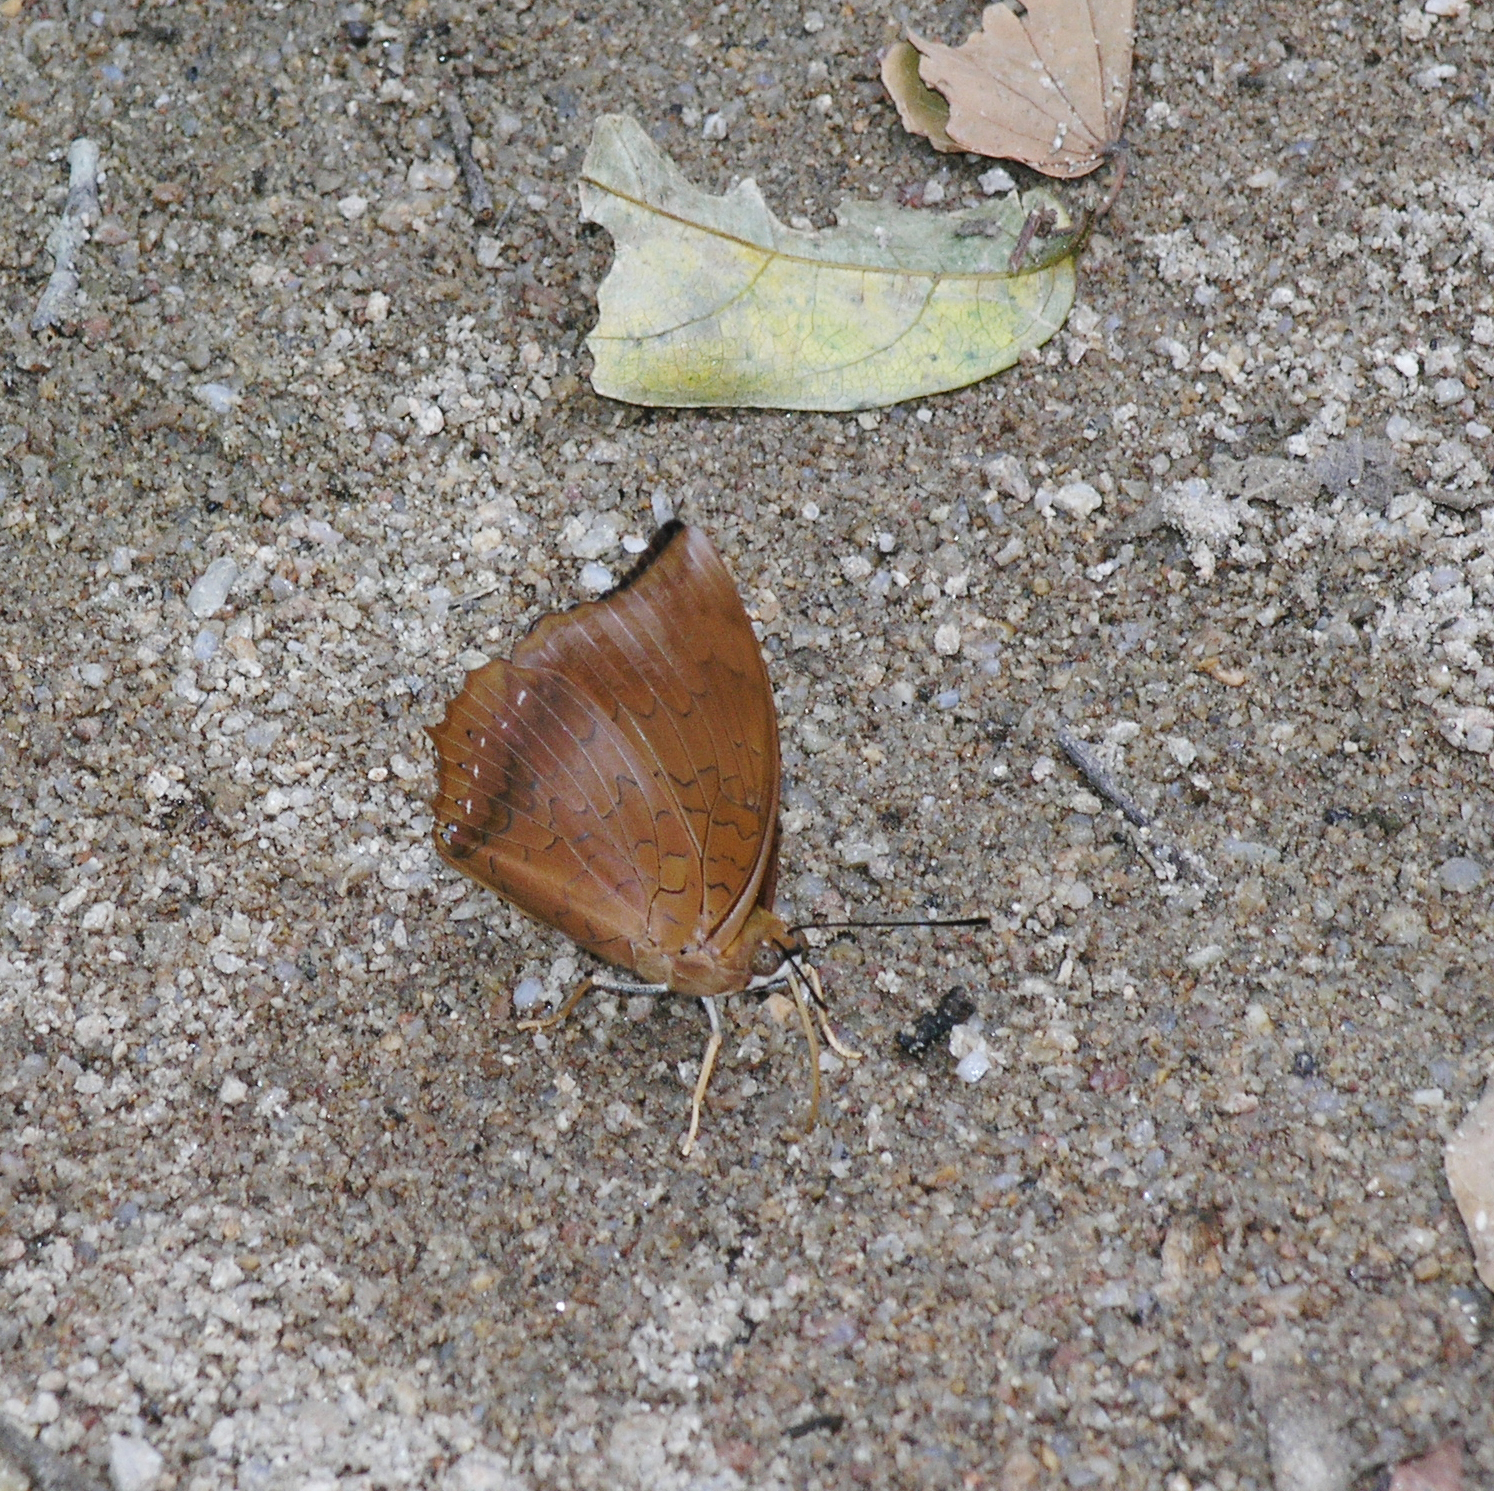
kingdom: Animalia
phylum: Arthropoda
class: Insecta
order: Lepidoptera
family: Nymphalidae
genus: Charaxes
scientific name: Charaxes bernardus
